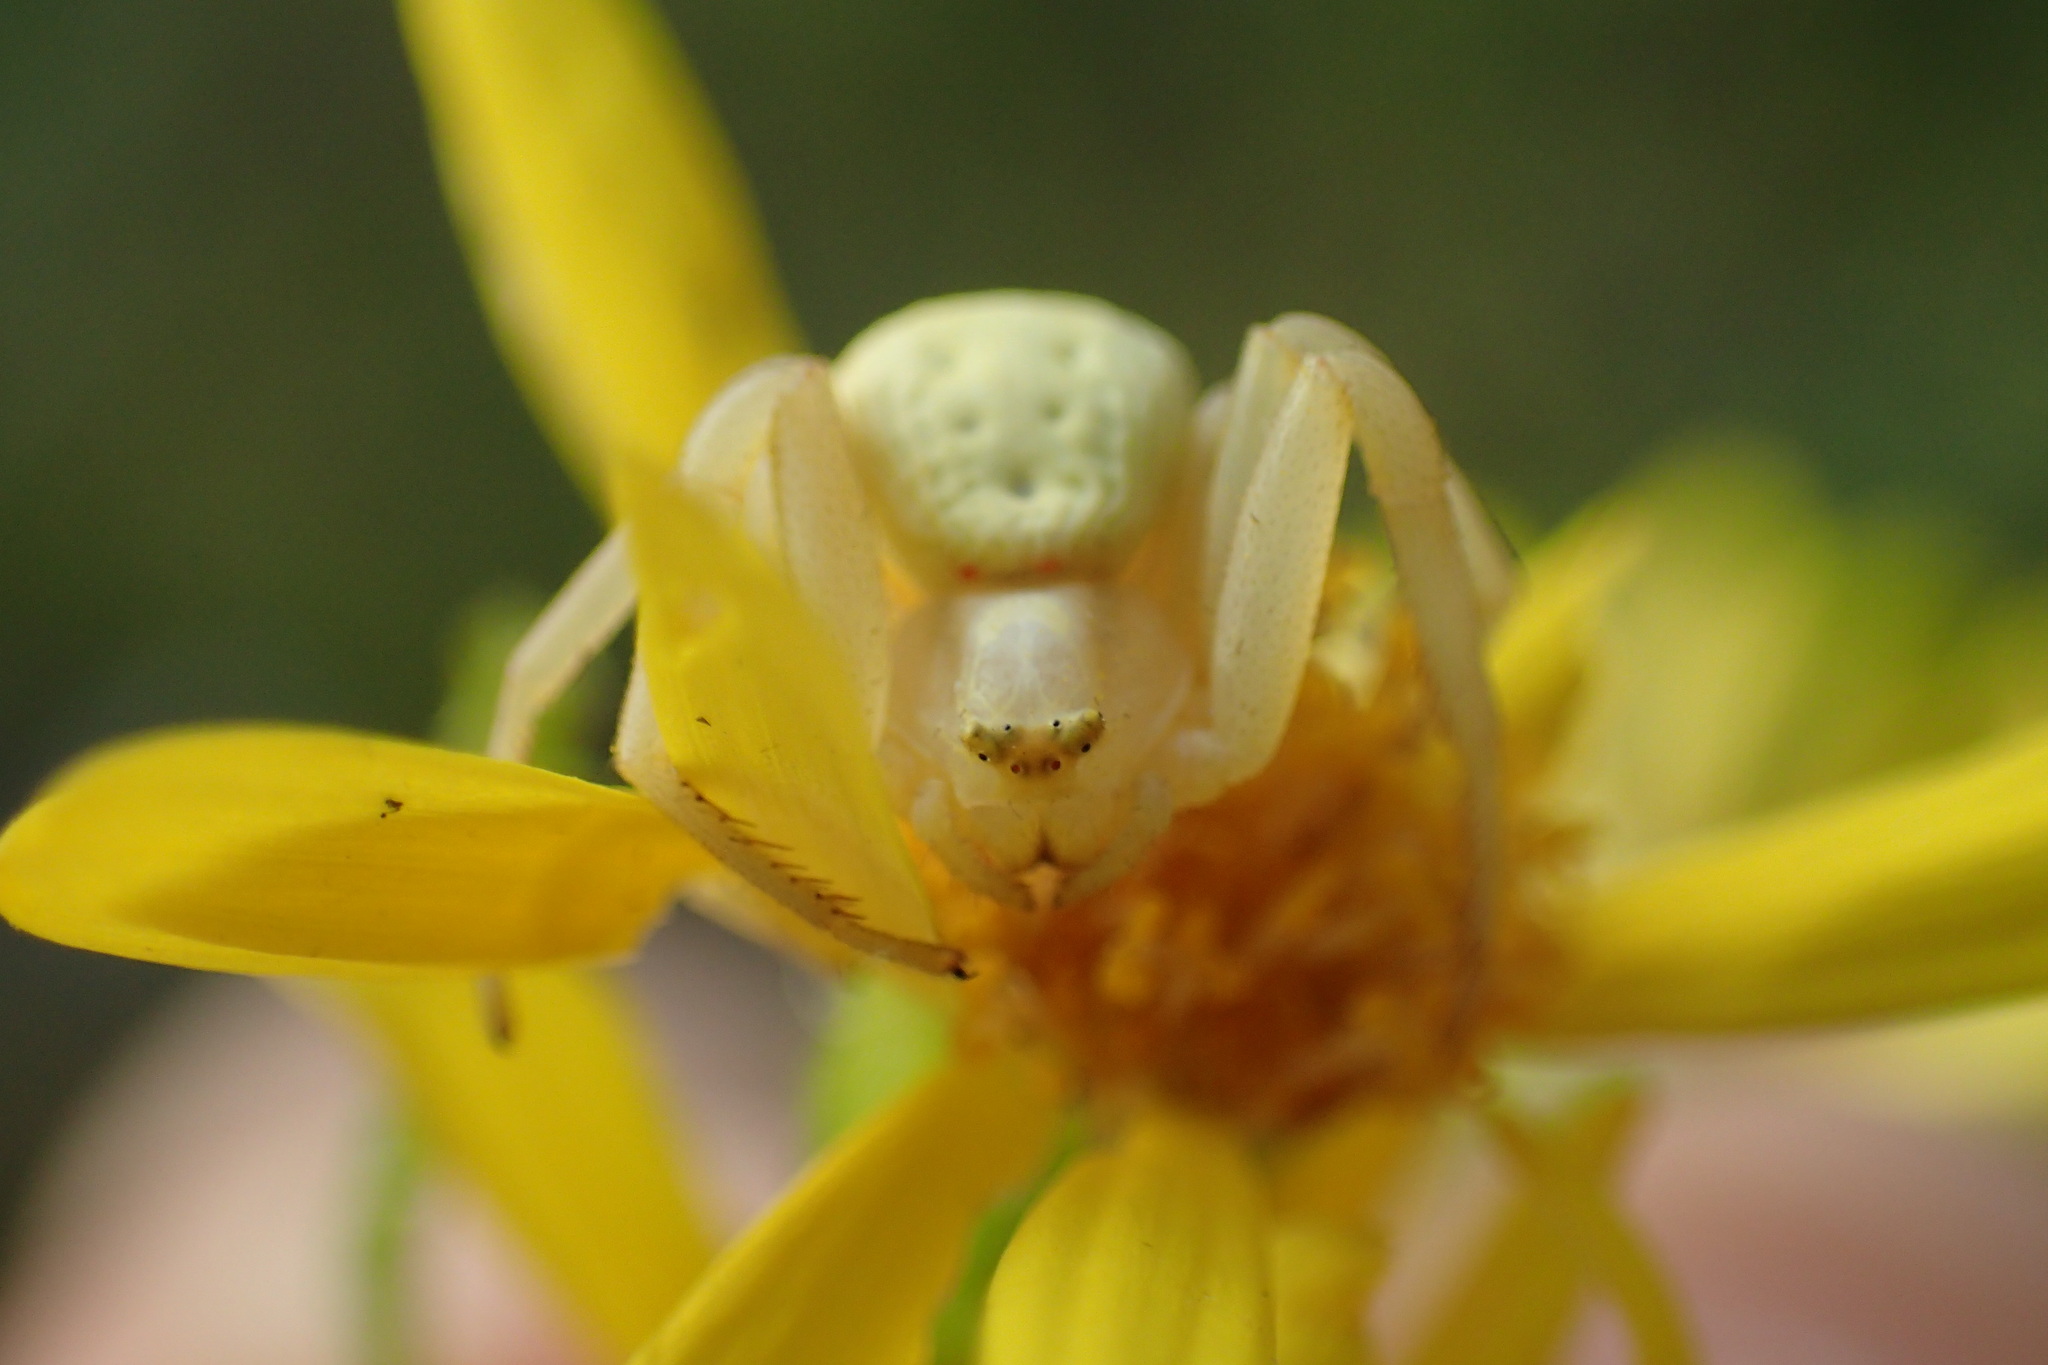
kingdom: Animalia
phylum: Arthropoda
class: Arachnida
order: Araneae
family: Thomisidae
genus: Misumena
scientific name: Misumena vatia
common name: Goldenrod crab spider
